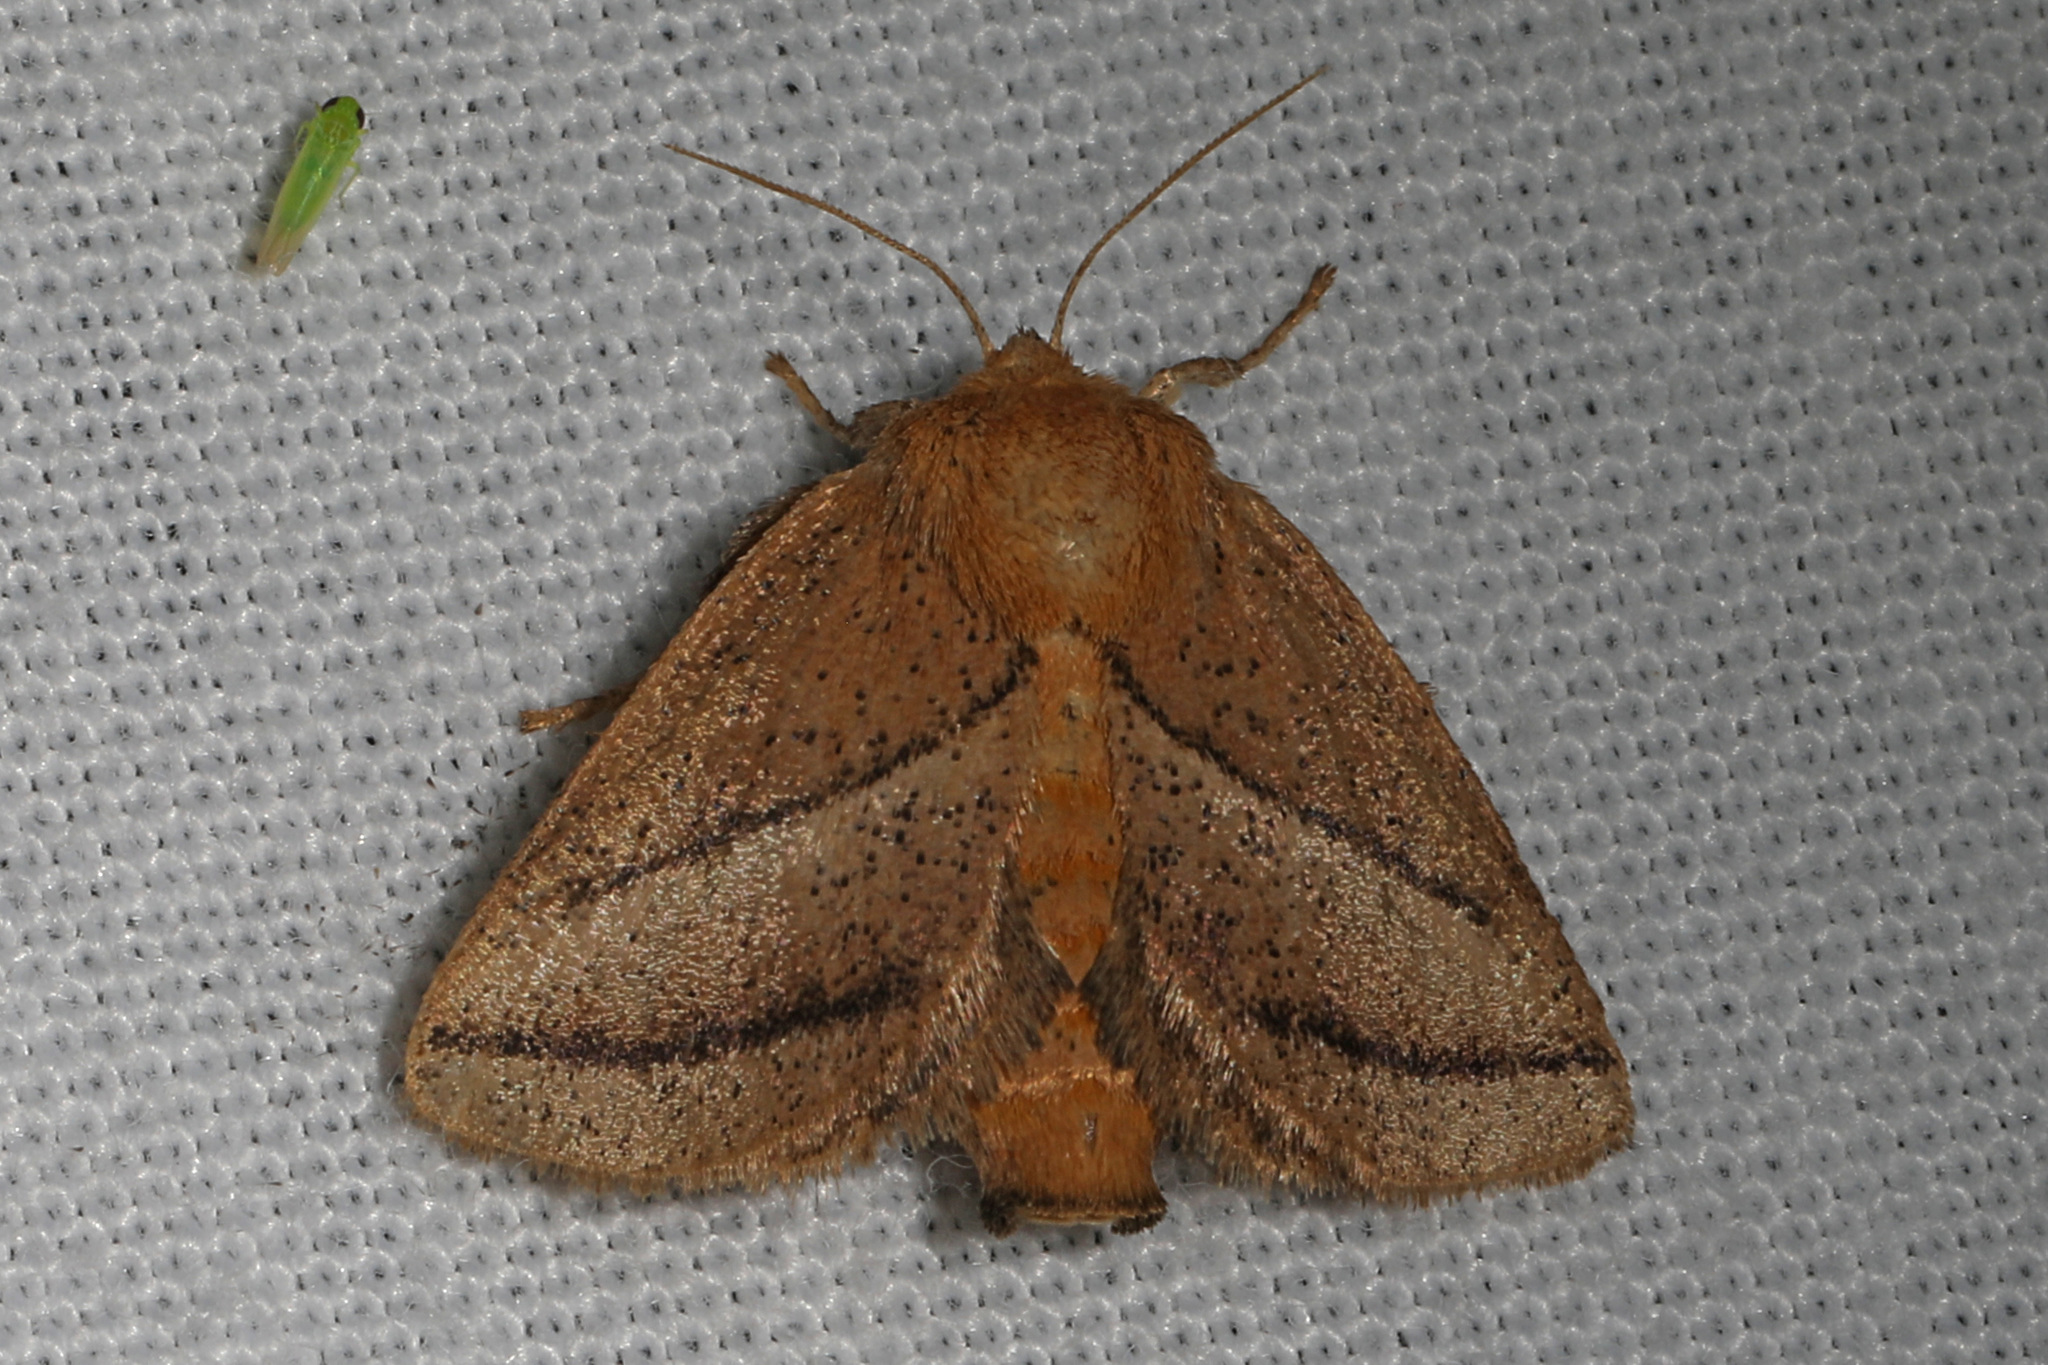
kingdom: Animalia
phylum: Arthropoda
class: Insecta
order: Lepidoptera
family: Limacodidae
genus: Natada
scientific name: Natada nasoni
